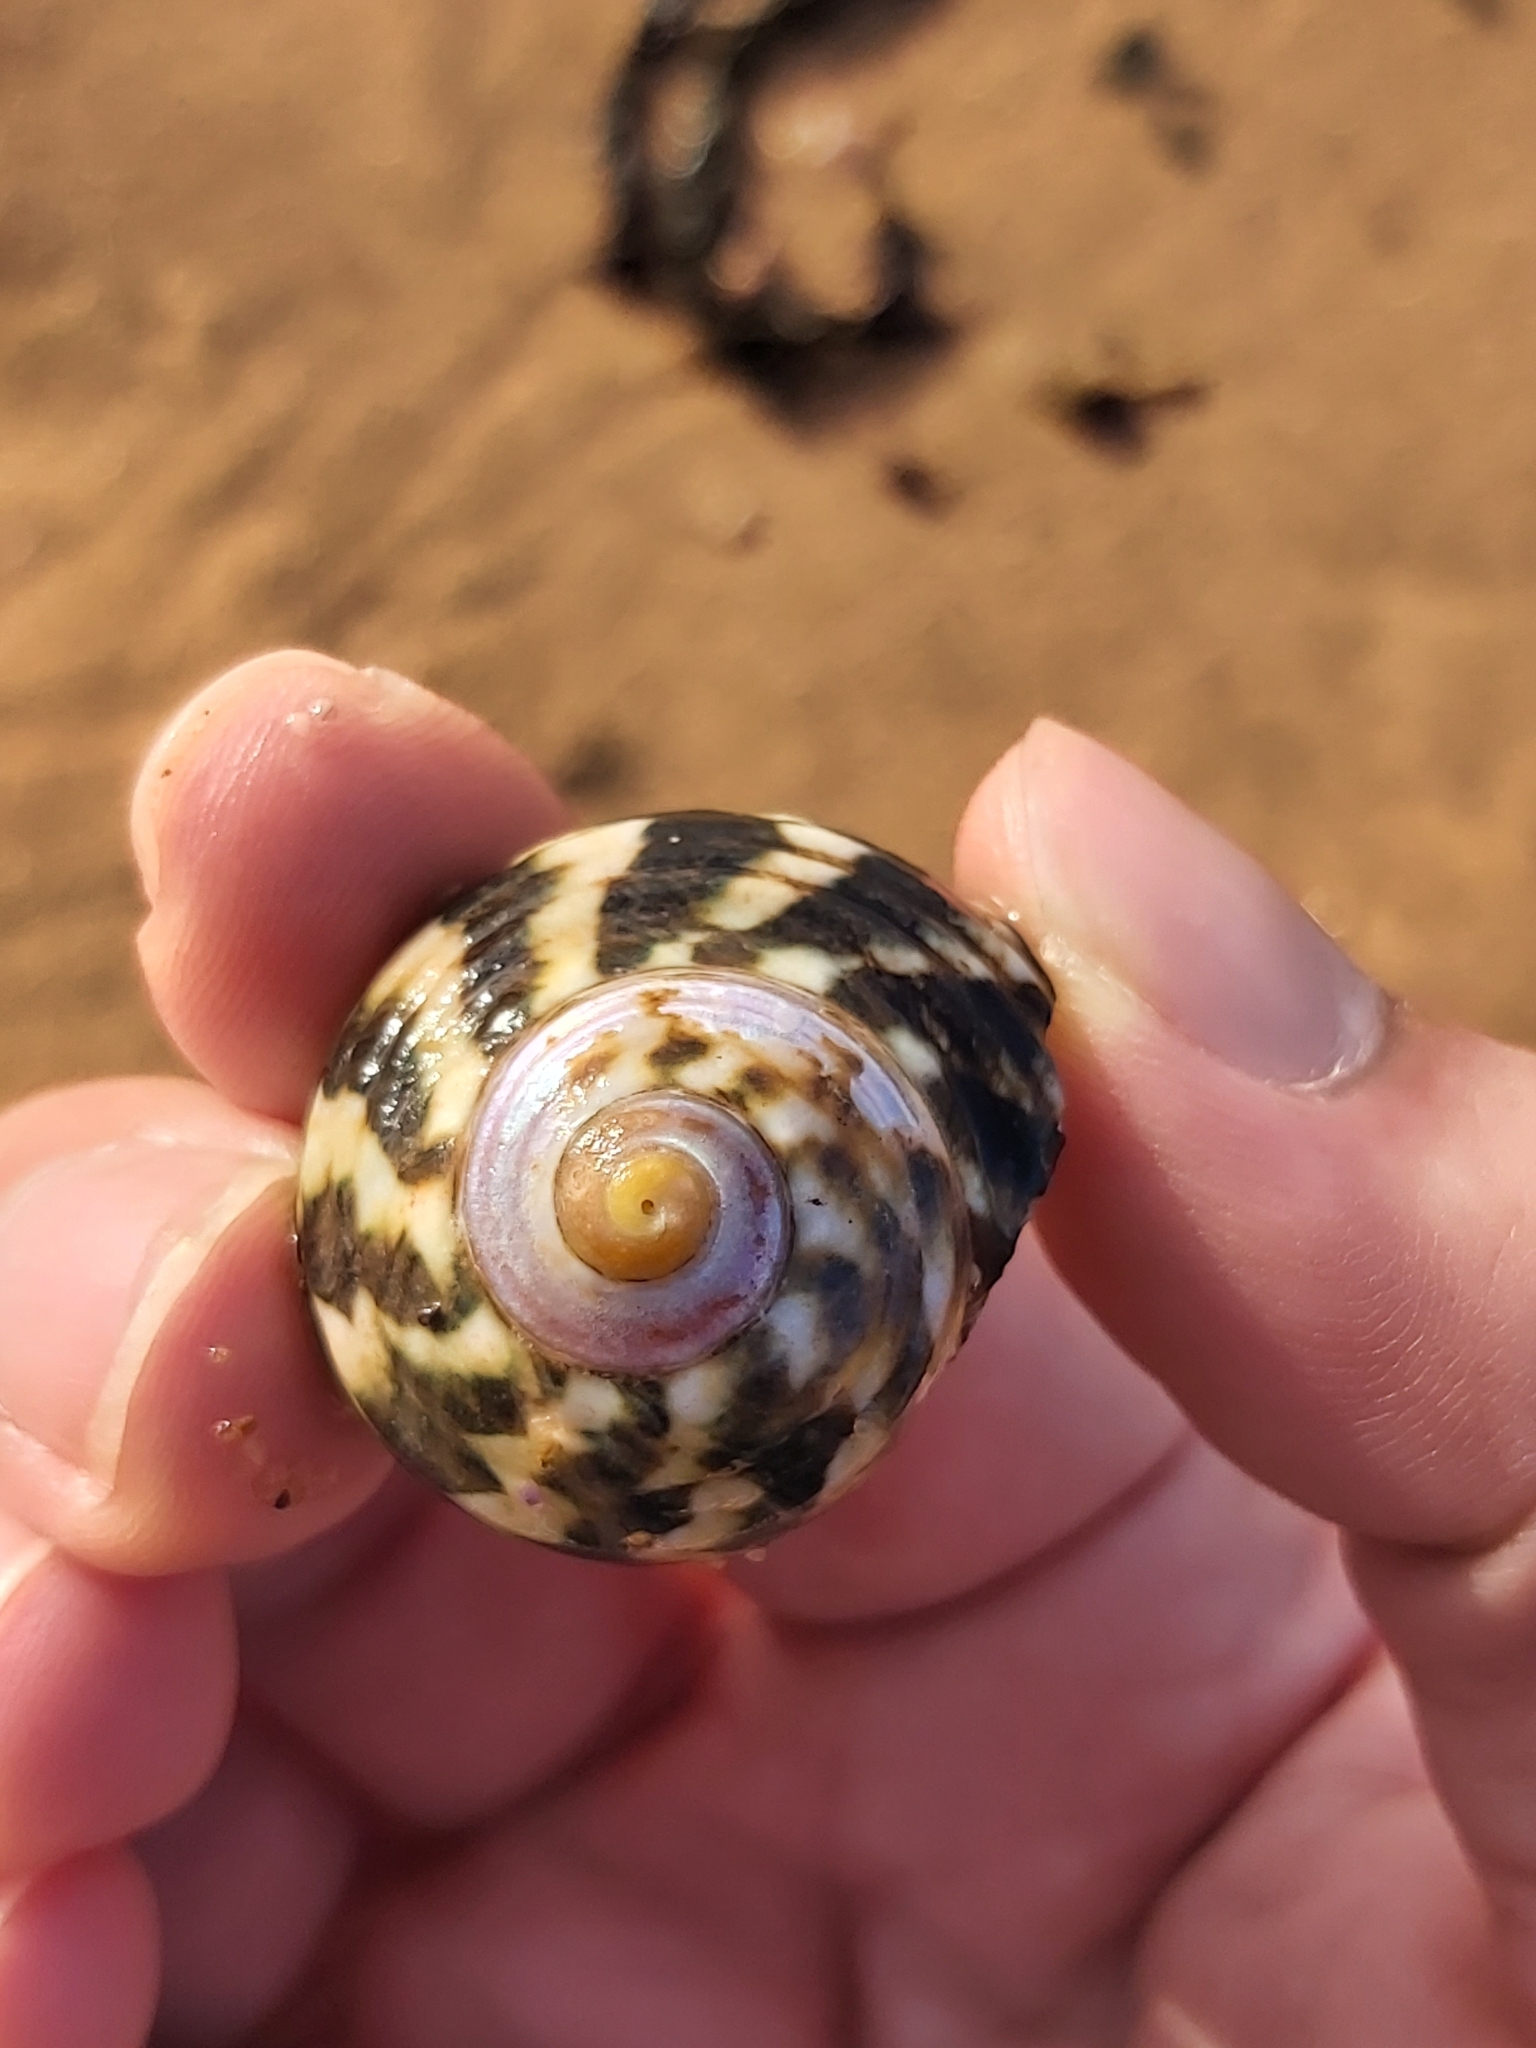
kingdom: Animalia
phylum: Mollusca
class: Gastropoda
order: Trochida
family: Turbinidae
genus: Lunella
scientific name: Lunella undulata
